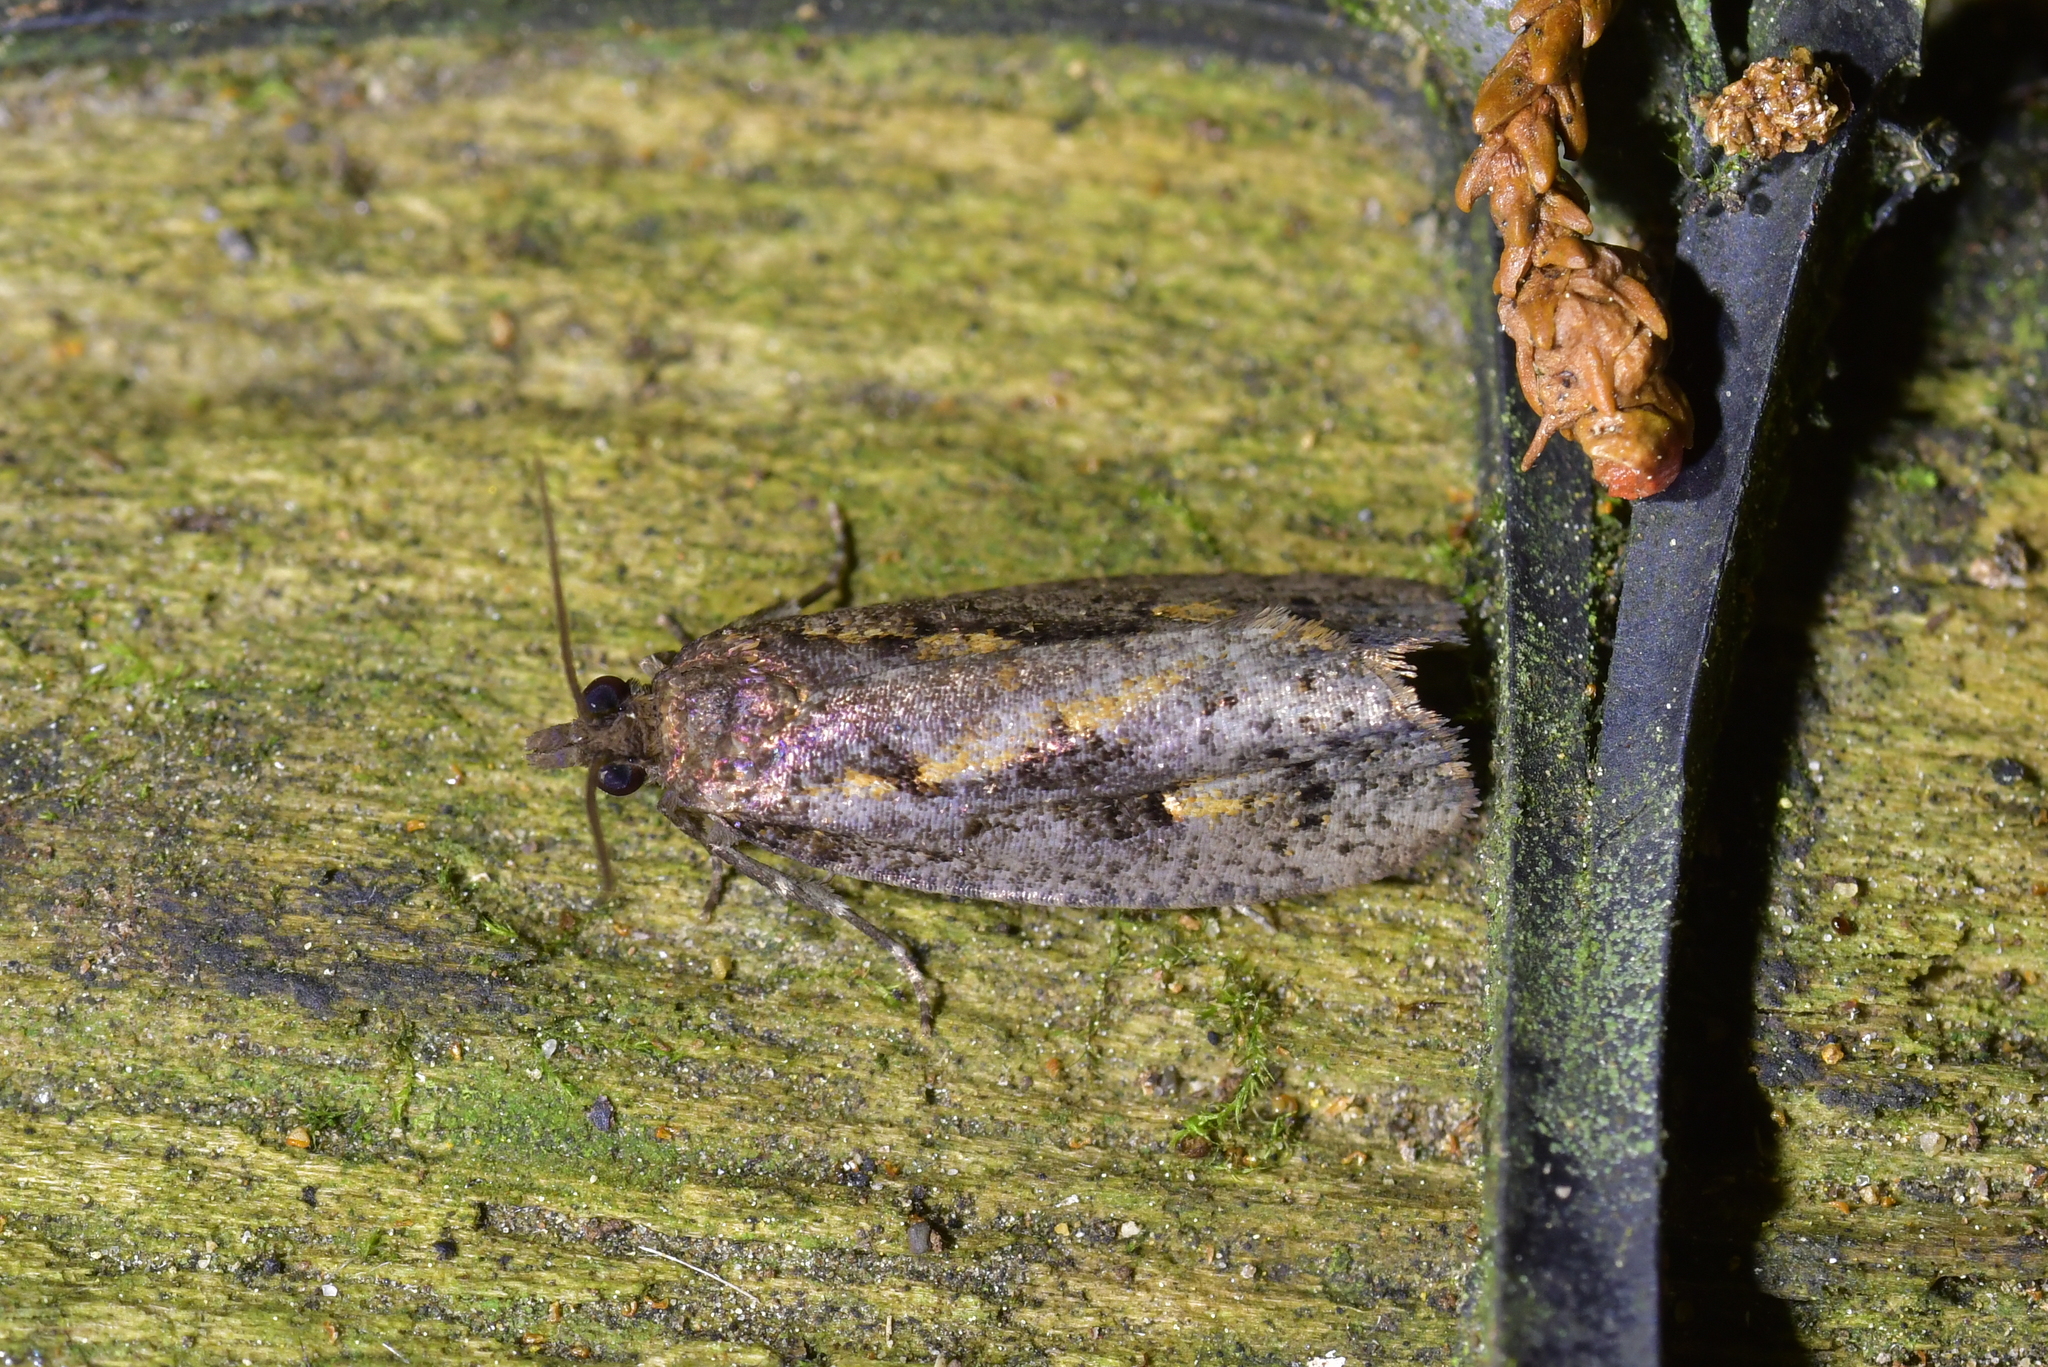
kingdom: Animalia
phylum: Arthropoda
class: Insecta
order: Lepidoptera
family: Tortricidae
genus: Cryptaspasma
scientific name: Cryptaspasma querula
